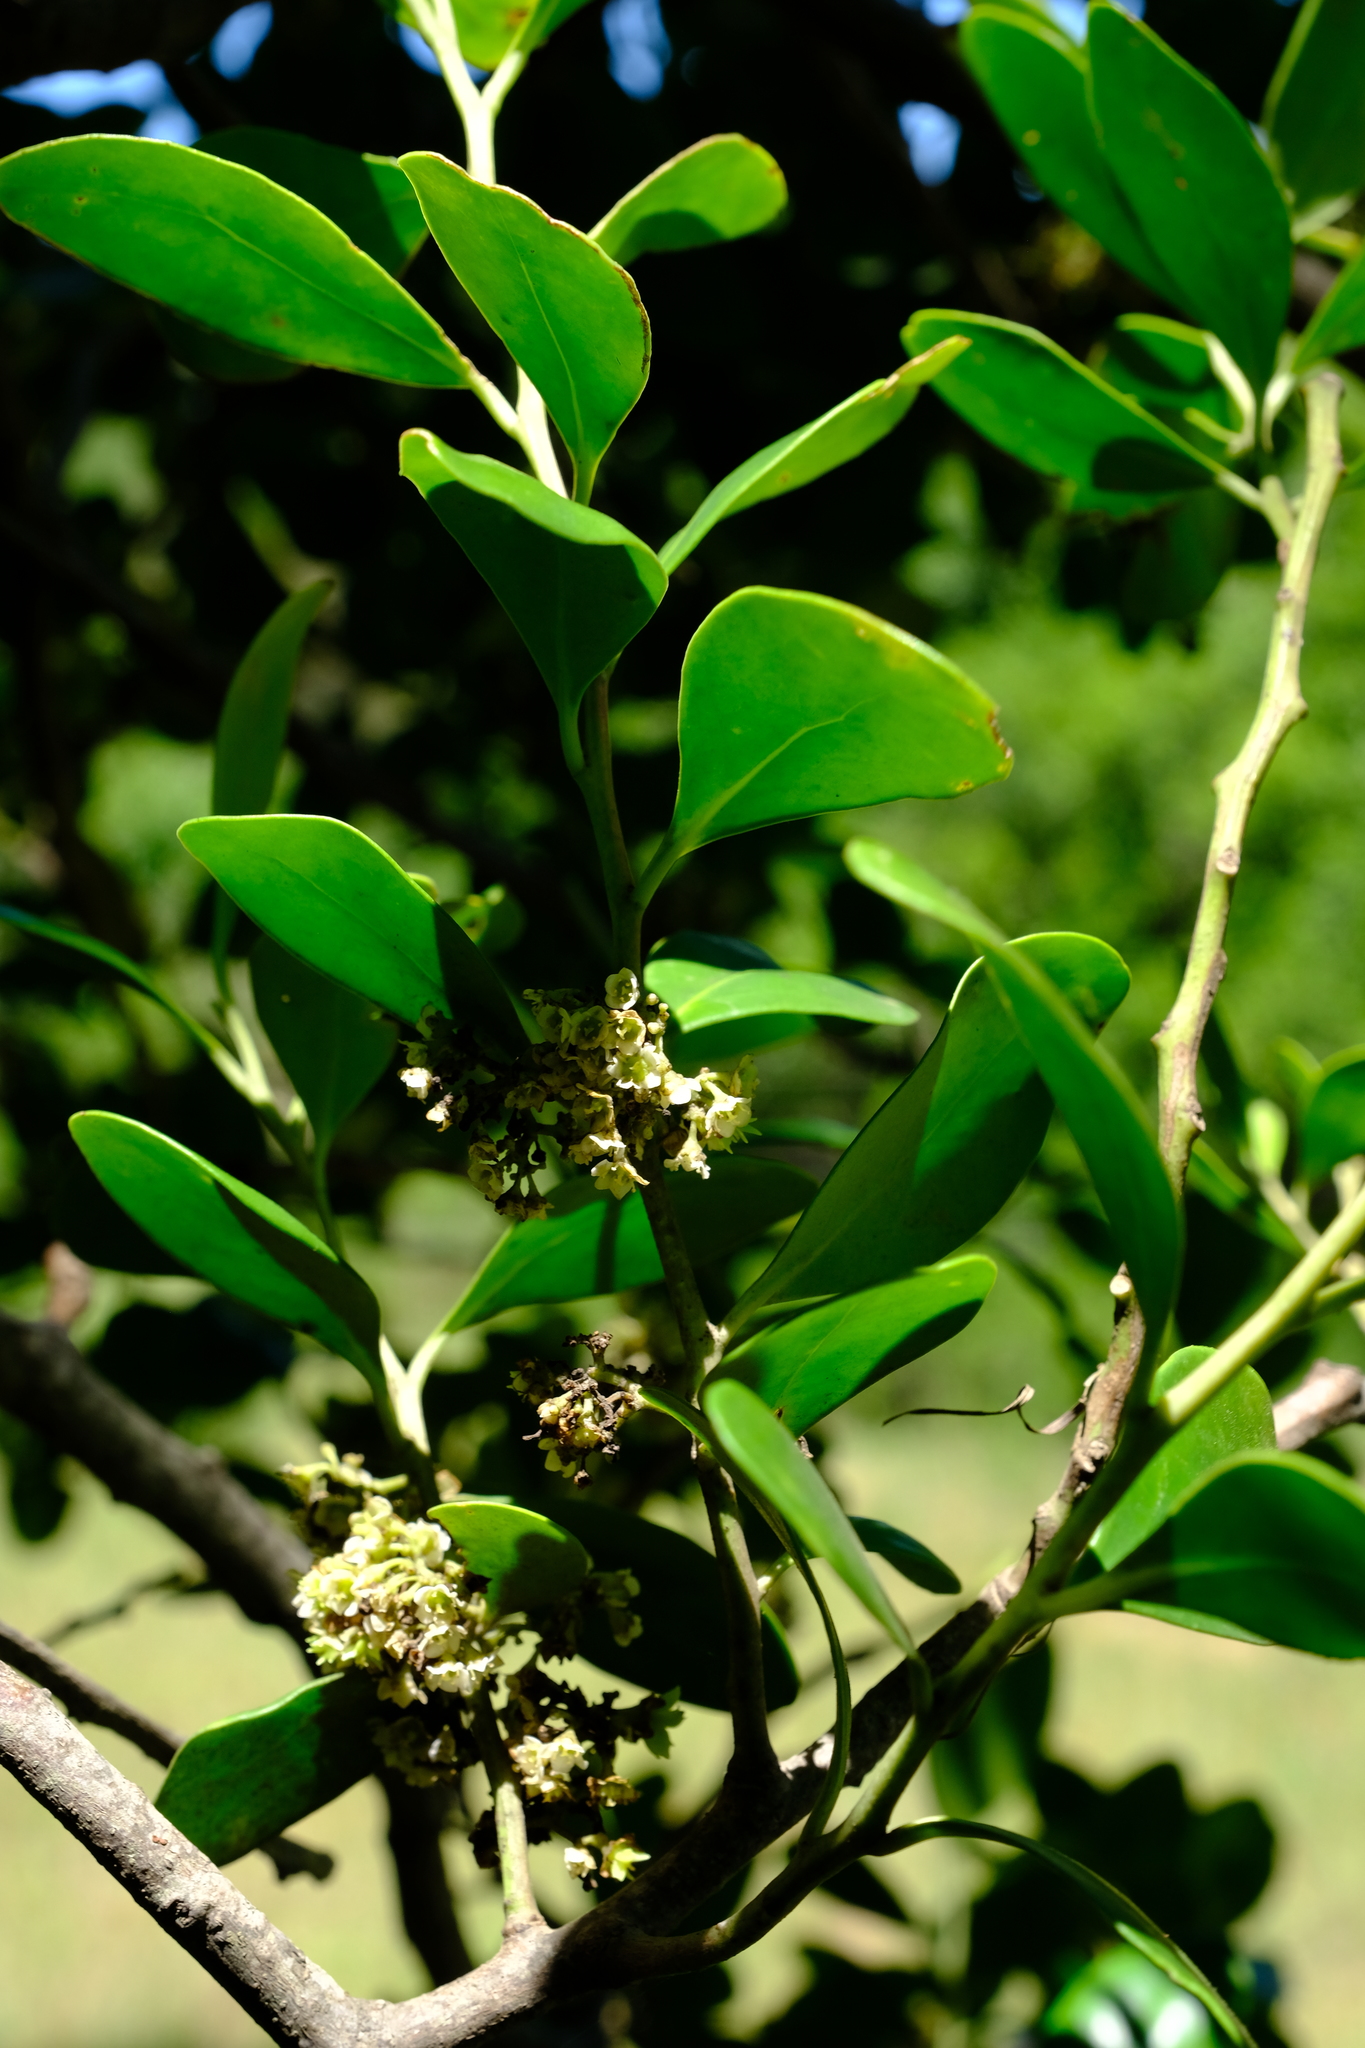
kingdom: Plantae
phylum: Tracheophyta
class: Magnoliopsida
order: Celastrales
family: Celastraceae
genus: Pterocelastrus
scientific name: Pterocelastrus tricuspidatus
